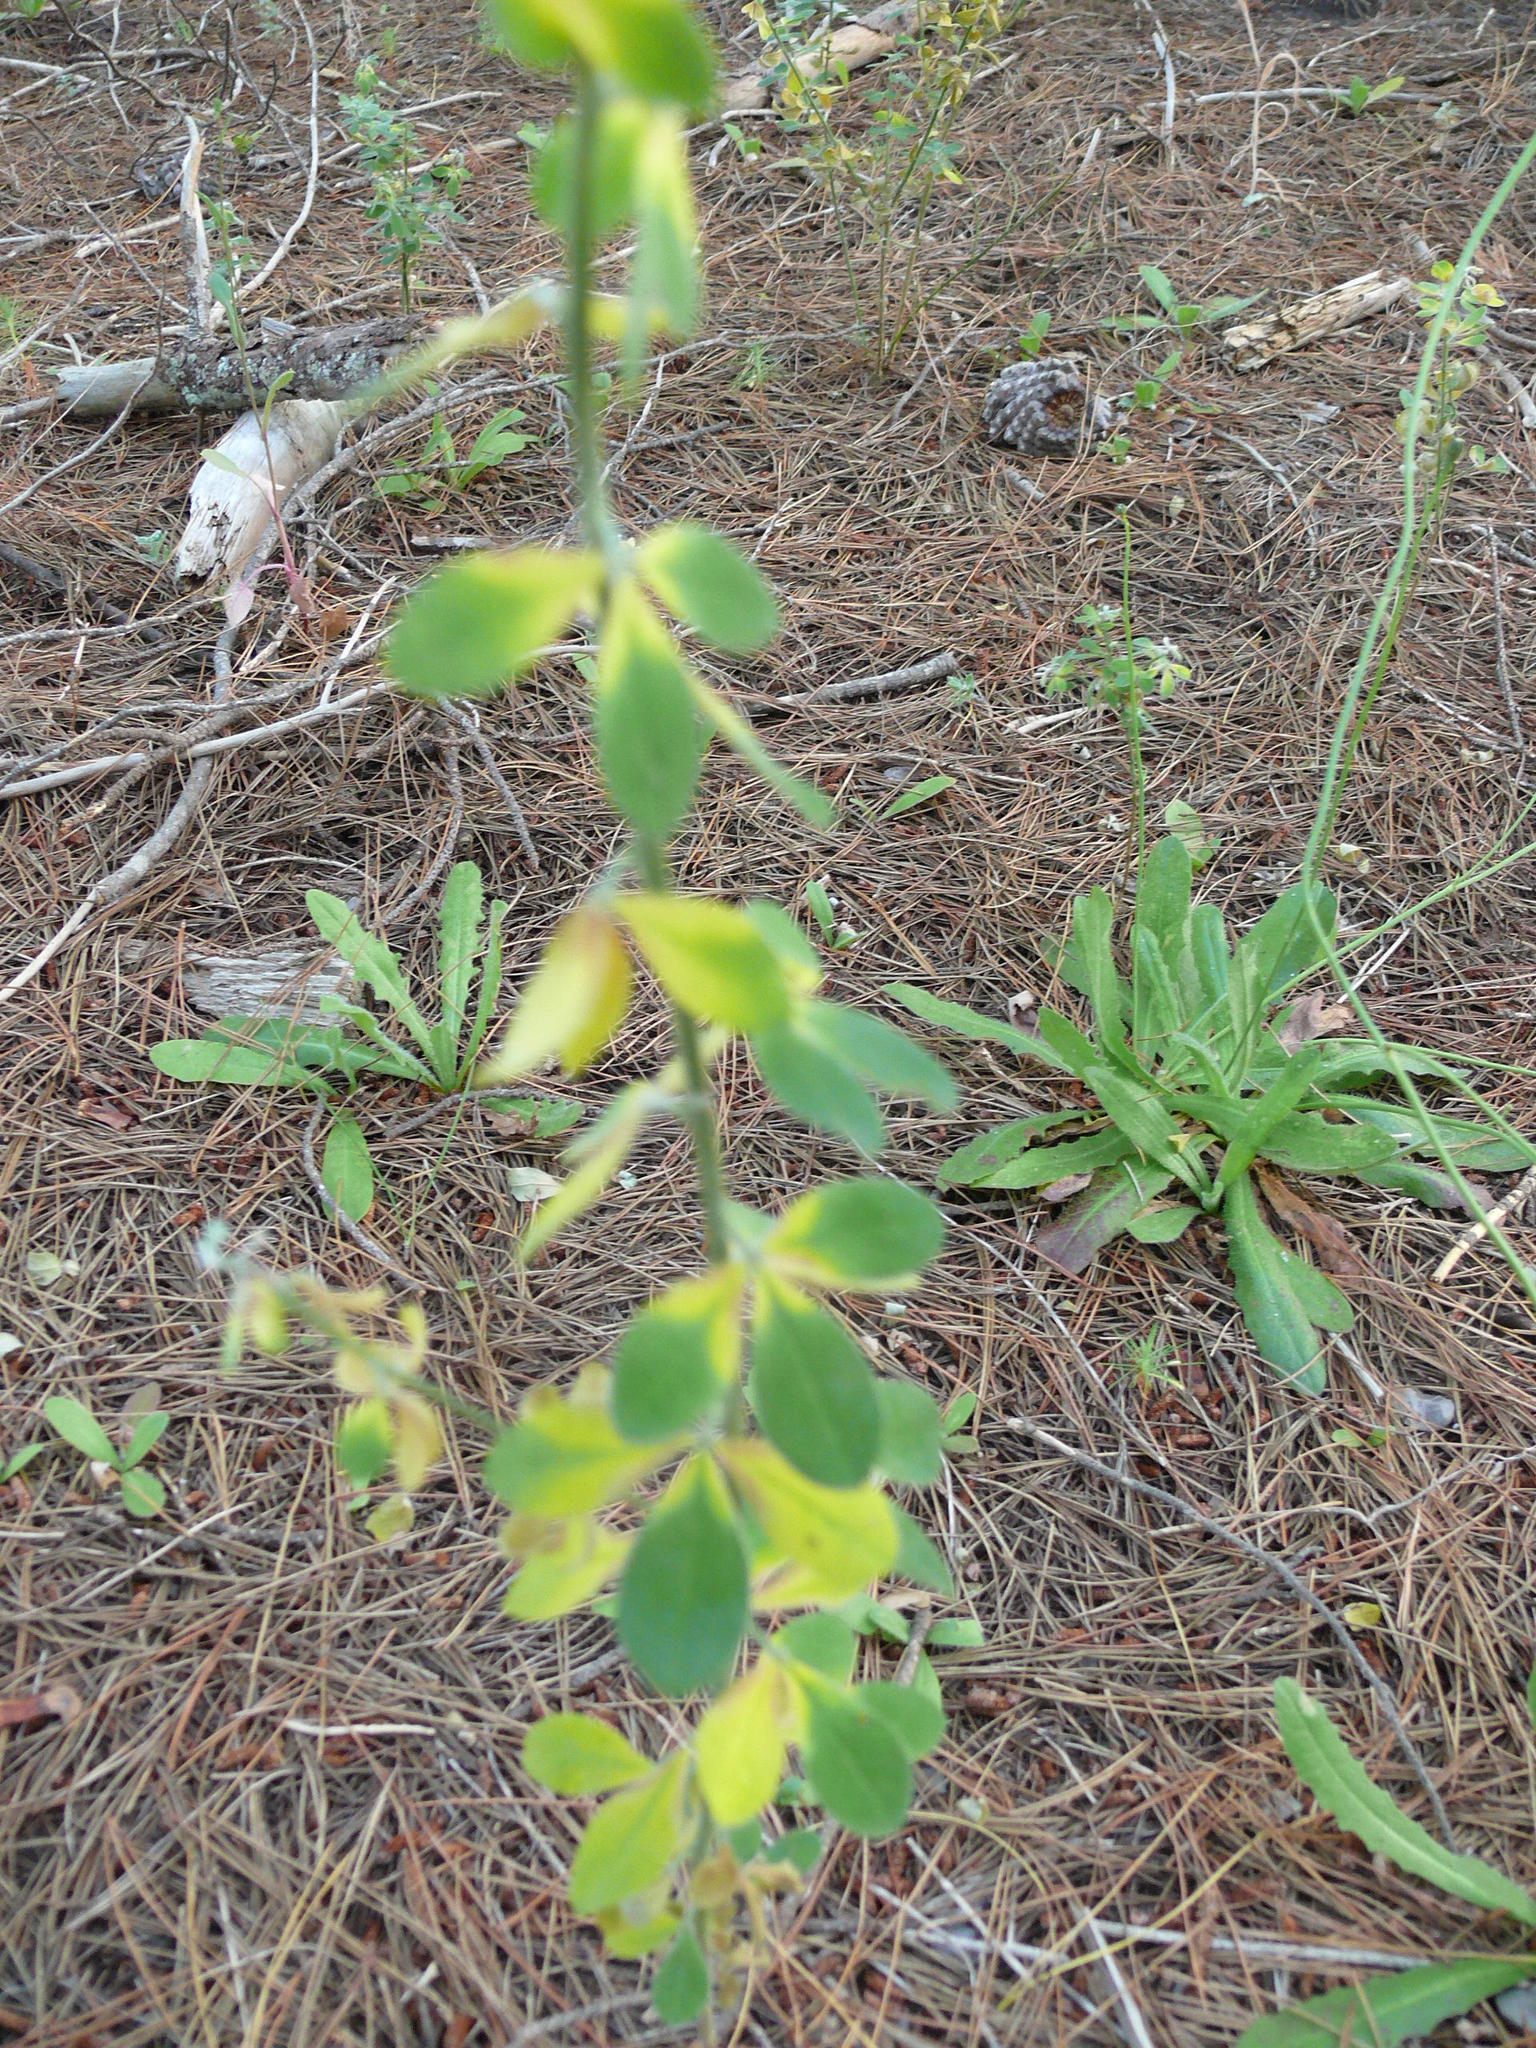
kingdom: Plantae
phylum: Tracheophyta
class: Magnoliopsida
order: Fabales
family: Fabaceae
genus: Genista
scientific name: Genista monspessulana
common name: Montpellier broom
